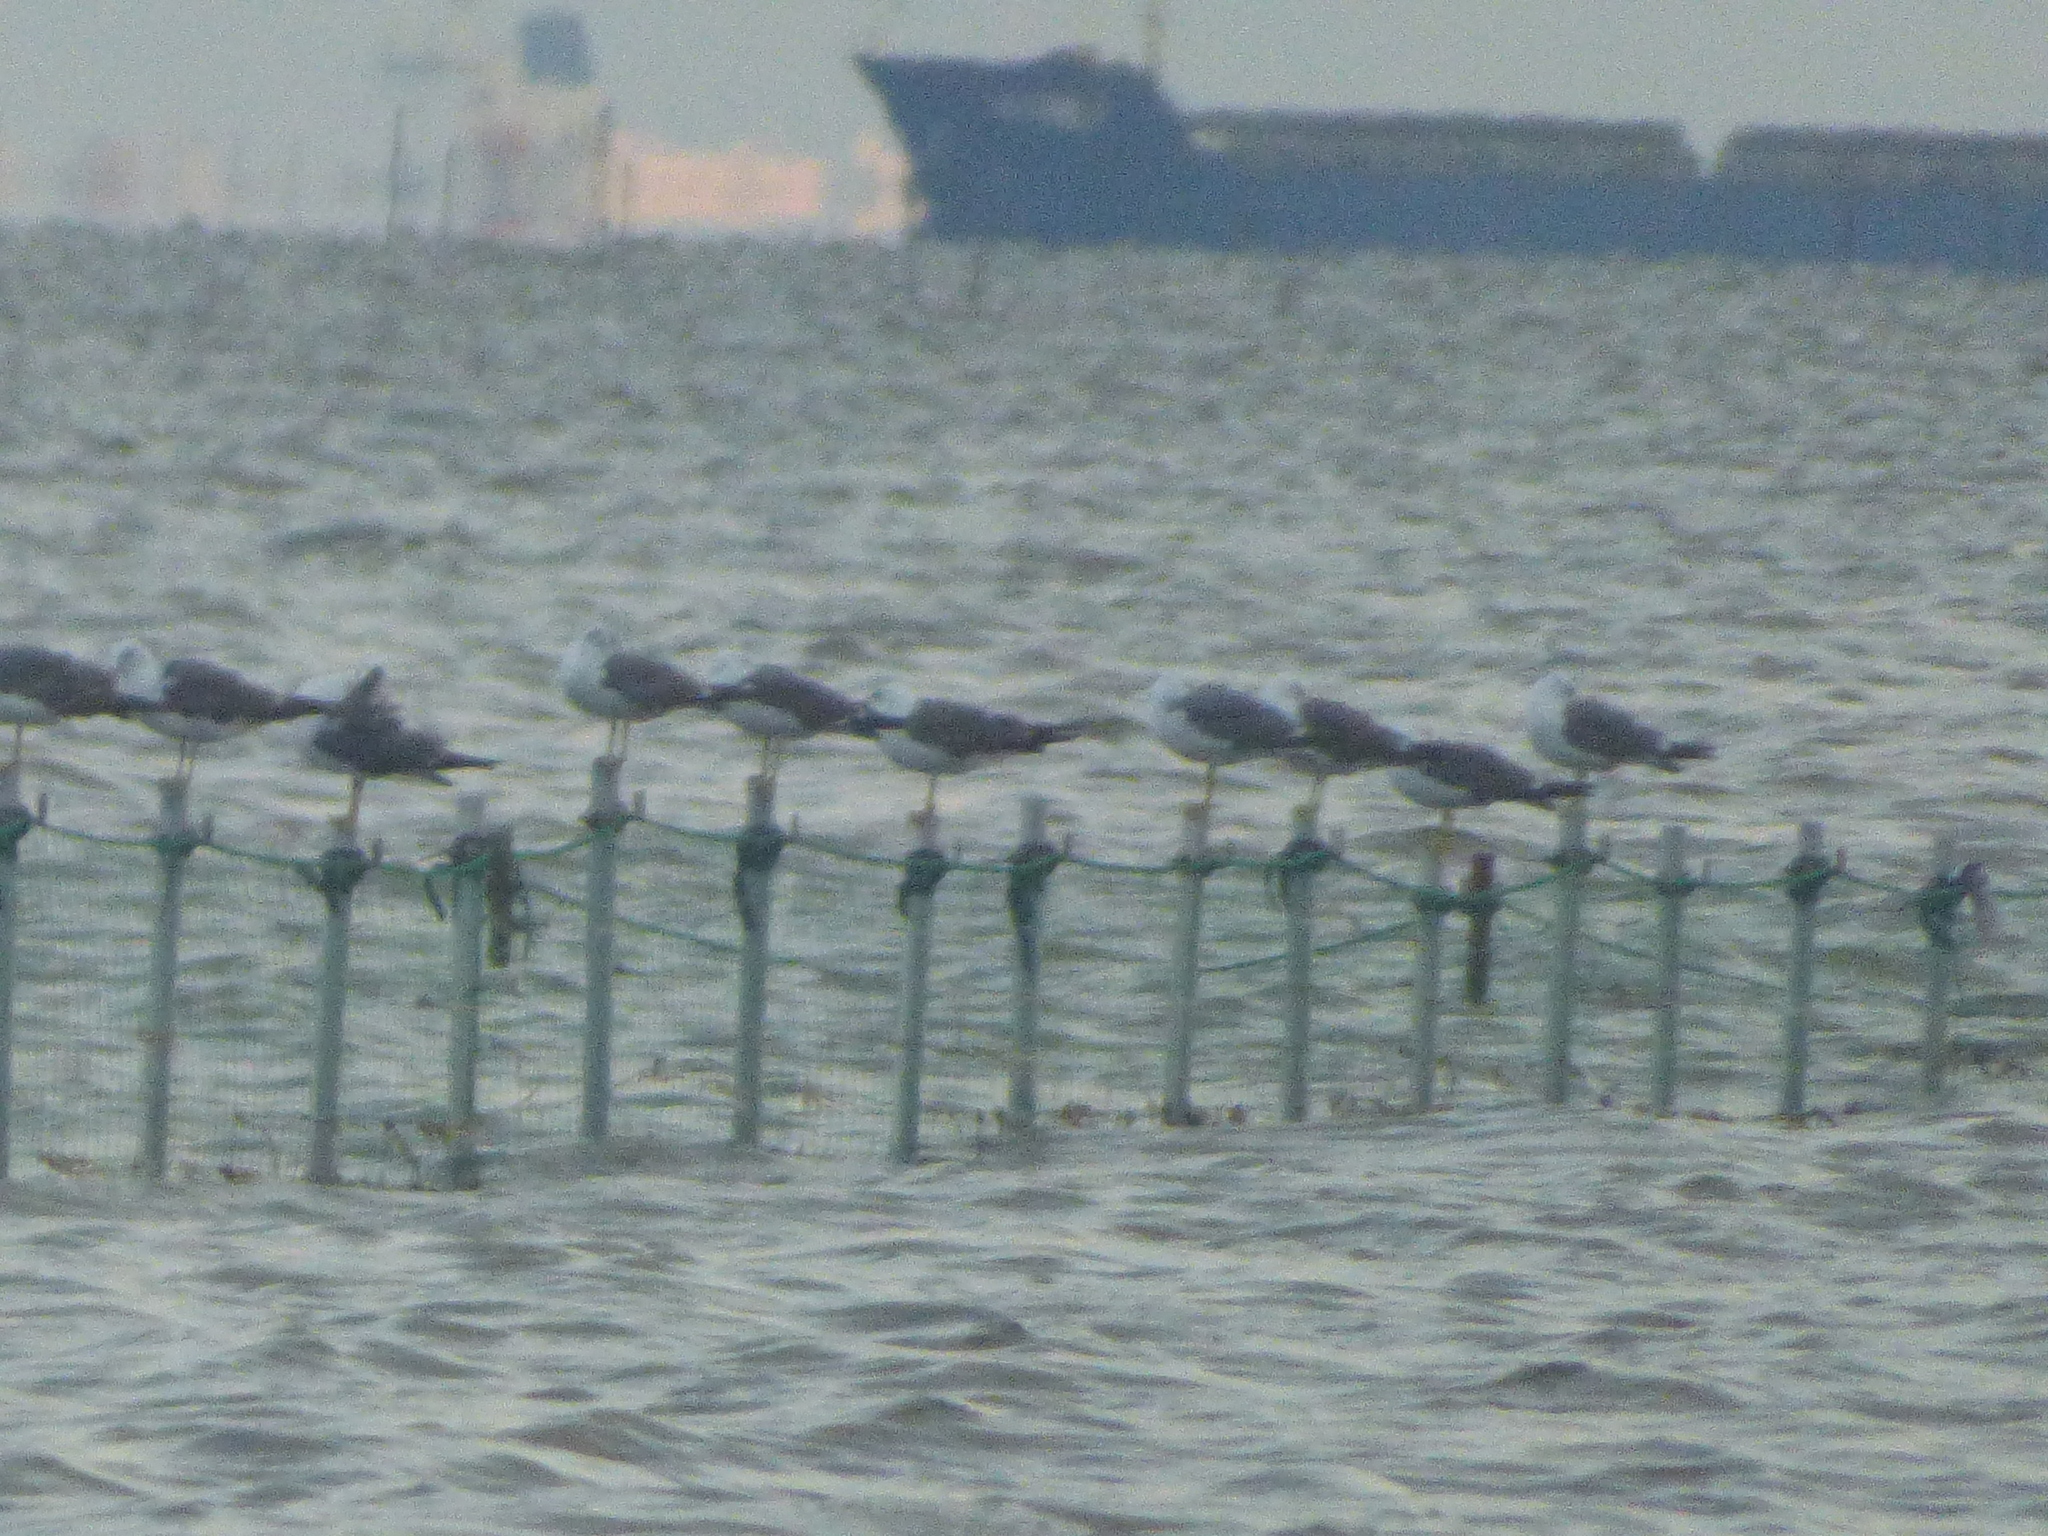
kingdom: Animalia
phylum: Chordata
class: Aves
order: Charadriiformes
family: Laridae
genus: Larus
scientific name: Larus crassirostris
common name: Black-tailed gull
